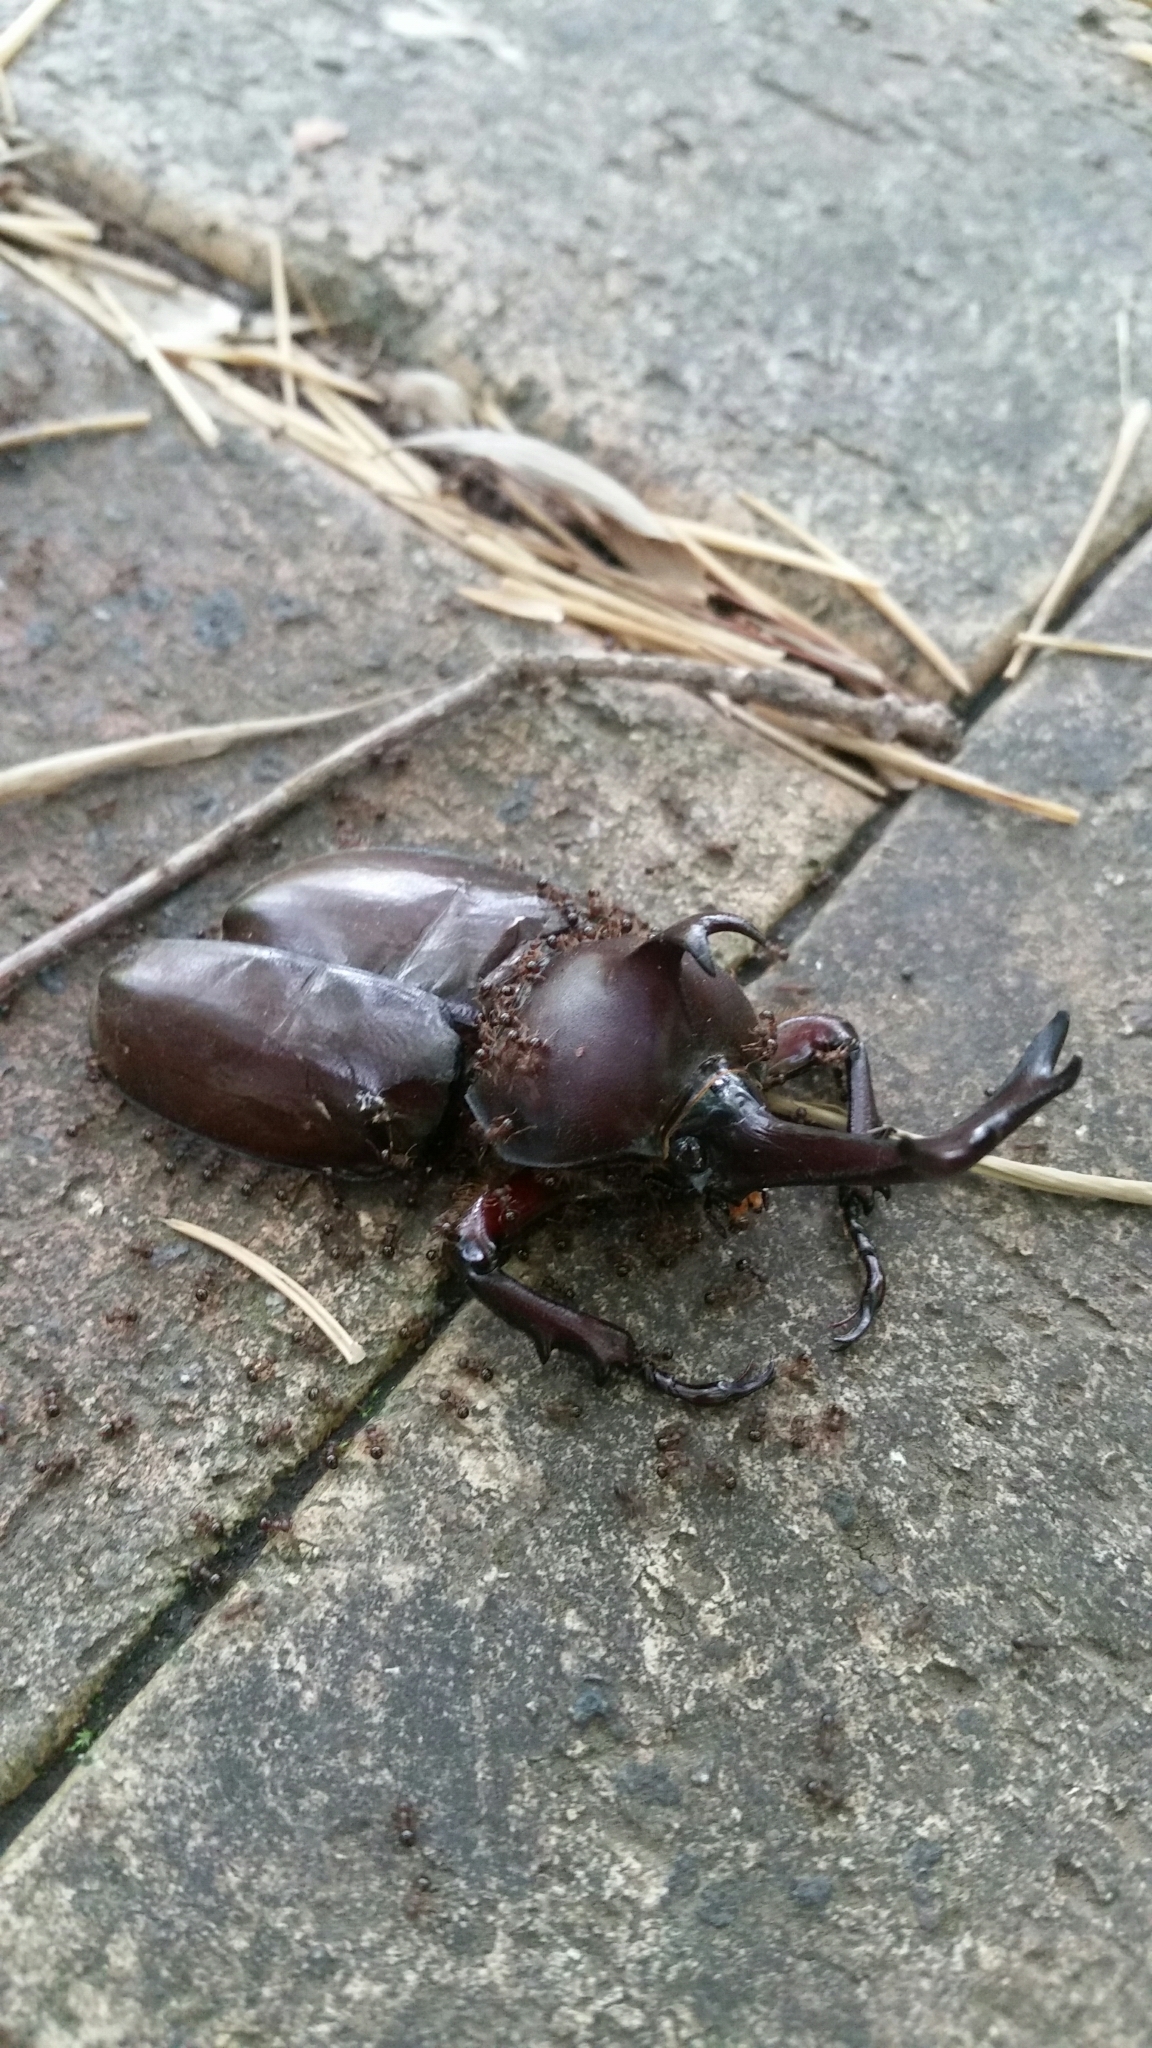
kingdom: Animalia
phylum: Arthropoda
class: Insecta
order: Coleoptera
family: Scarabaeidae
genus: Trypoxylus
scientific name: Trypoxylus dichotomus
